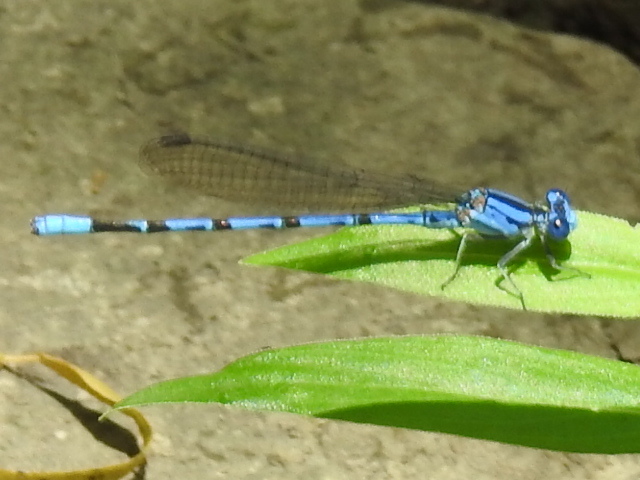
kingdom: Animalia
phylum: Arthropoda
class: Insecta
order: Odonata
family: Coenagrionidae
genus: Argia
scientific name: Argia funebris
